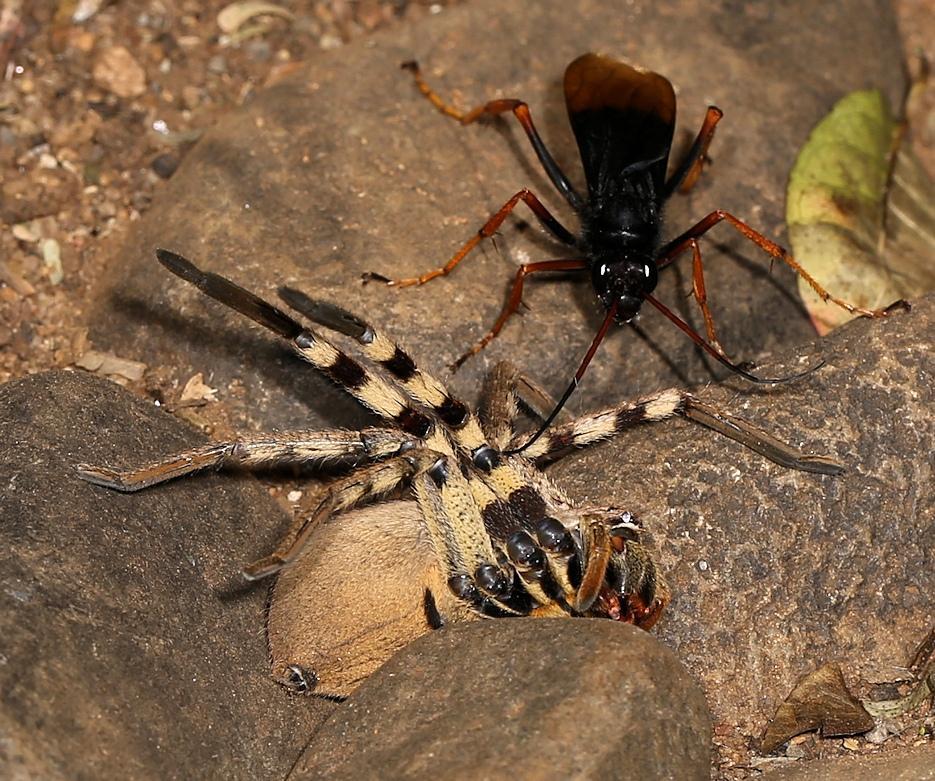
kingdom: Animalia
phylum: Arthropoda
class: Arachnida
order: Araneae
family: Sparassidae
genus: Palystes
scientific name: Palystes superciliosus
